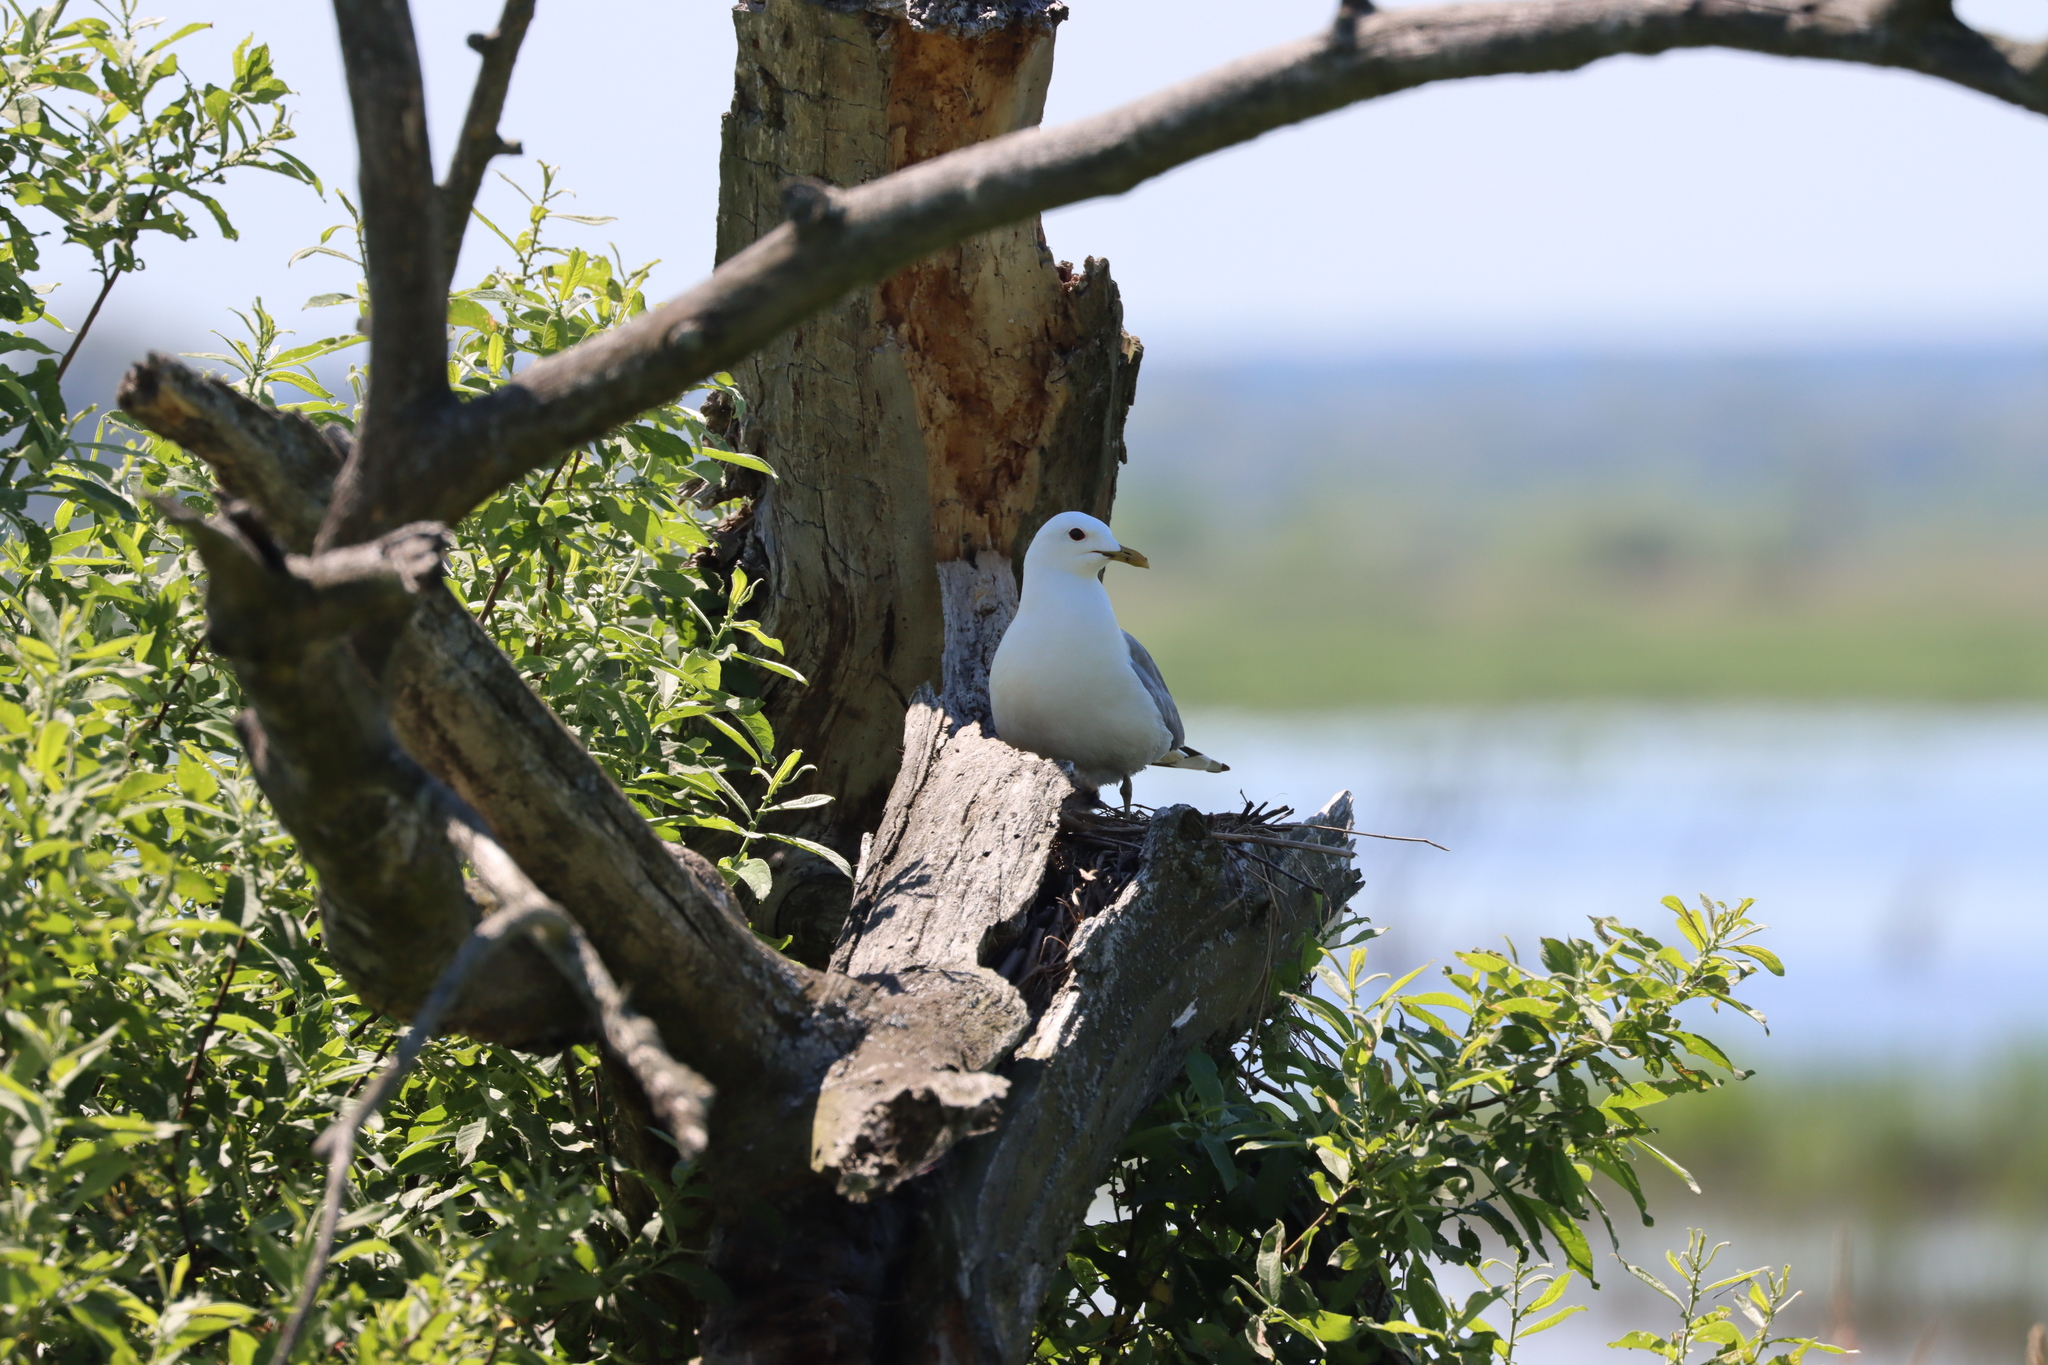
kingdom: Animalia
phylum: Chordata
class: Aves
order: Charadriiformes
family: Laridae
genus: Larus
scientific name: Larus canus
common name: Mew gull
